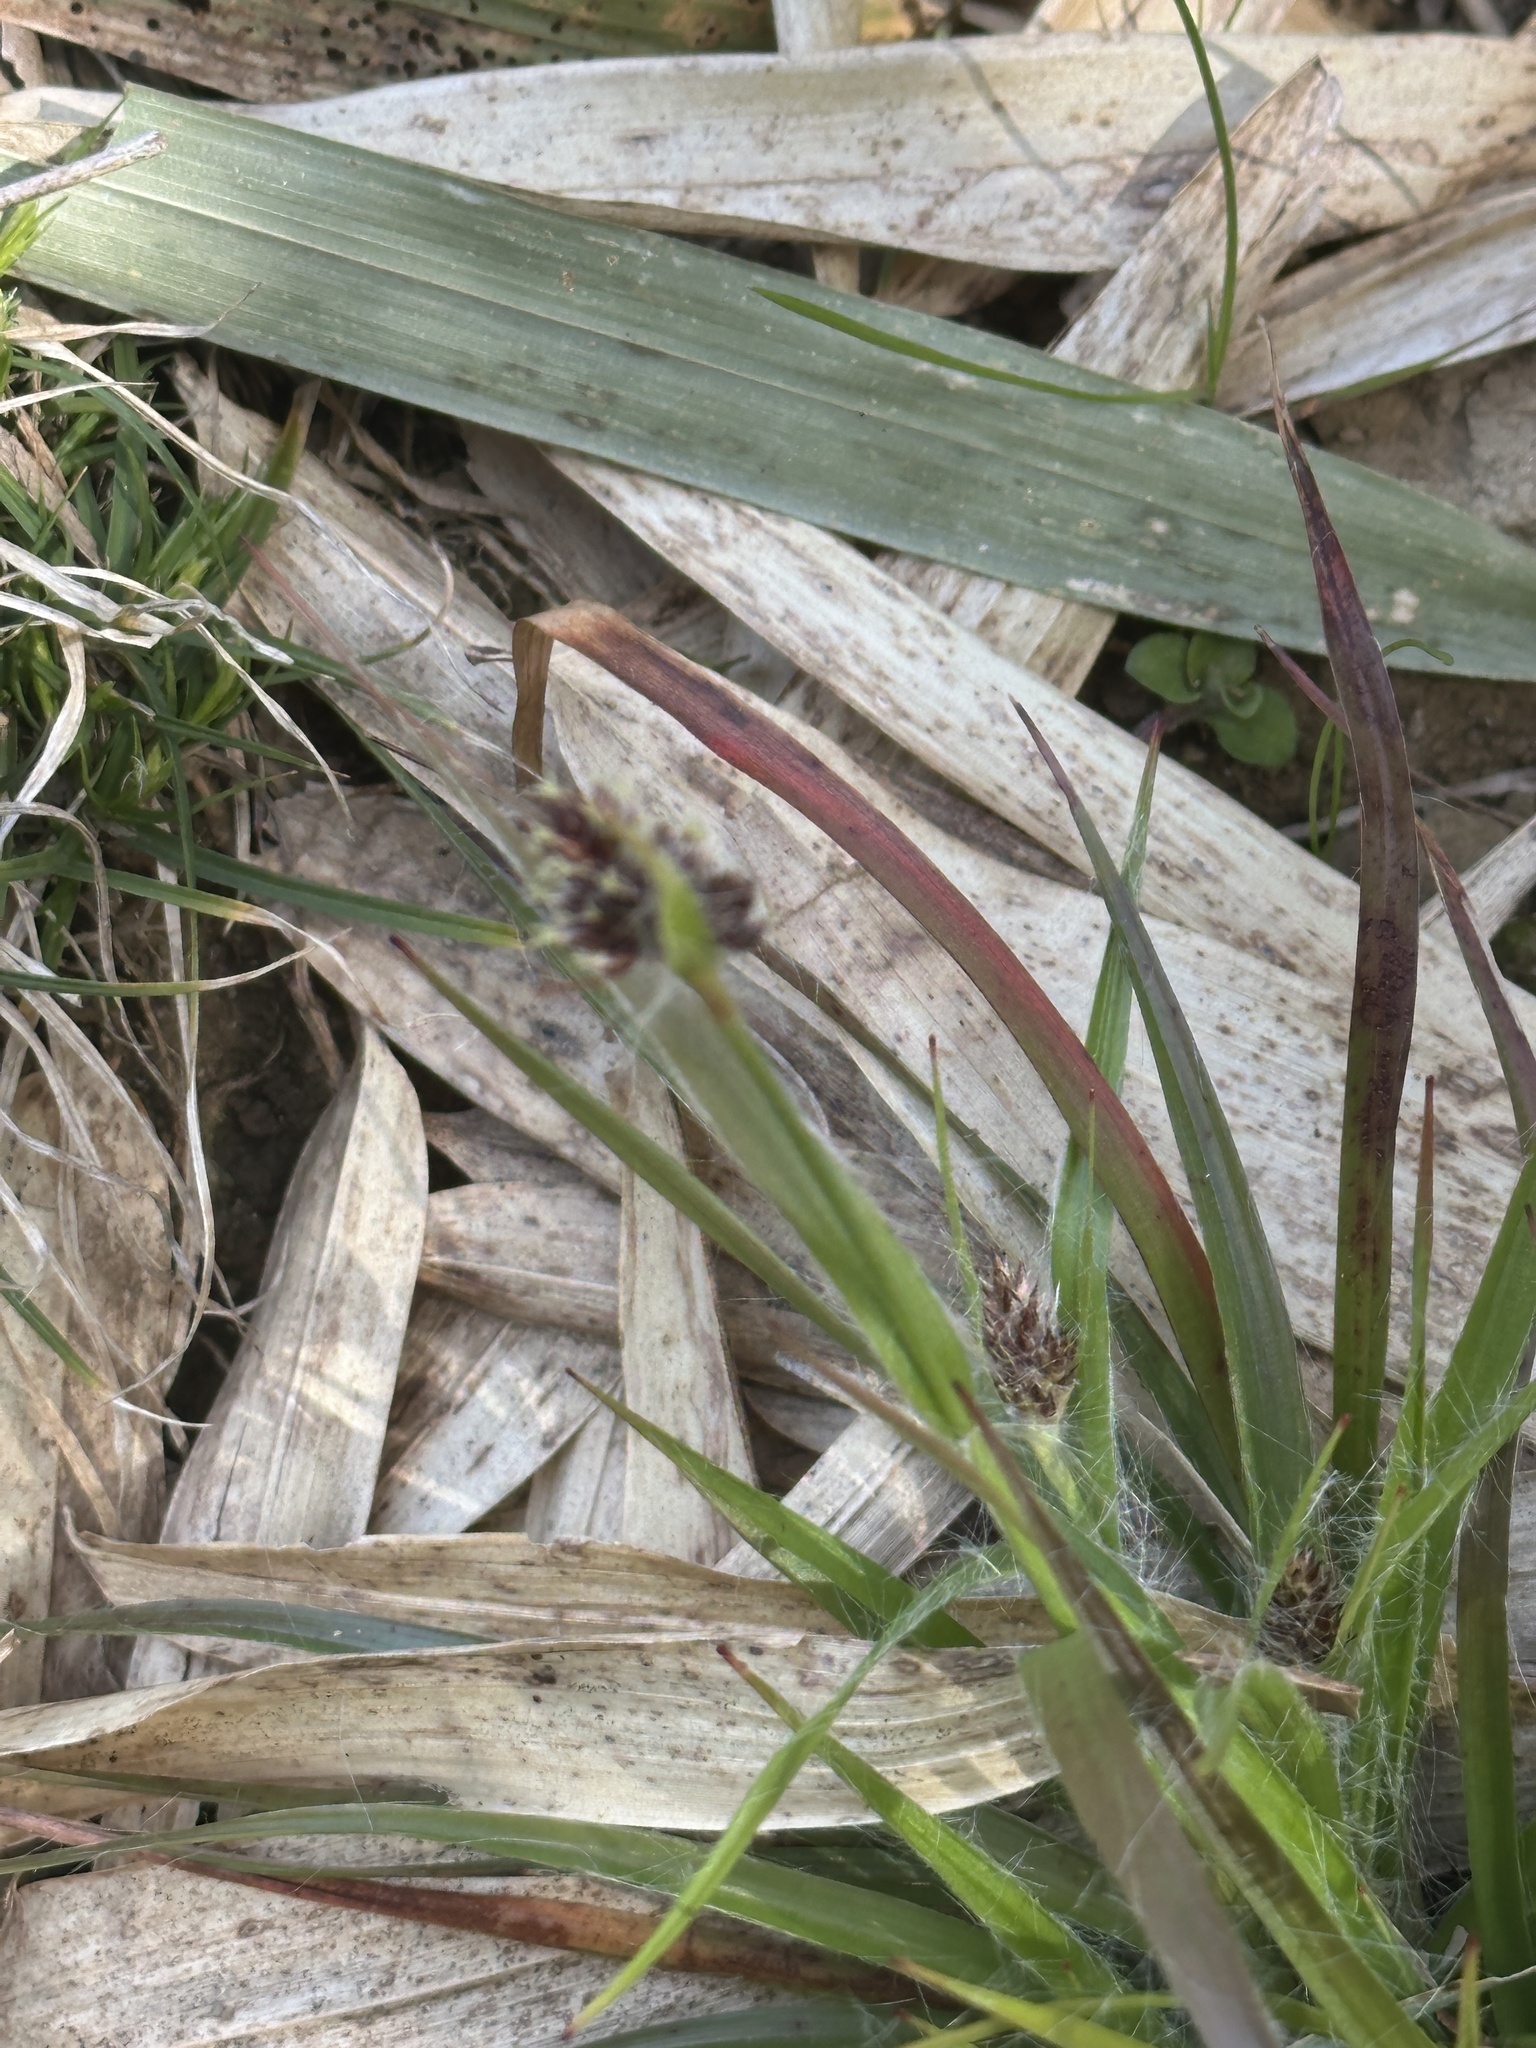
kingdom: Plantae
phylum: Tracheophyta
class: Liliopsida
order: Poales
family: Juncaceae
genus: Luzula
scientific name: Luzula capitata
